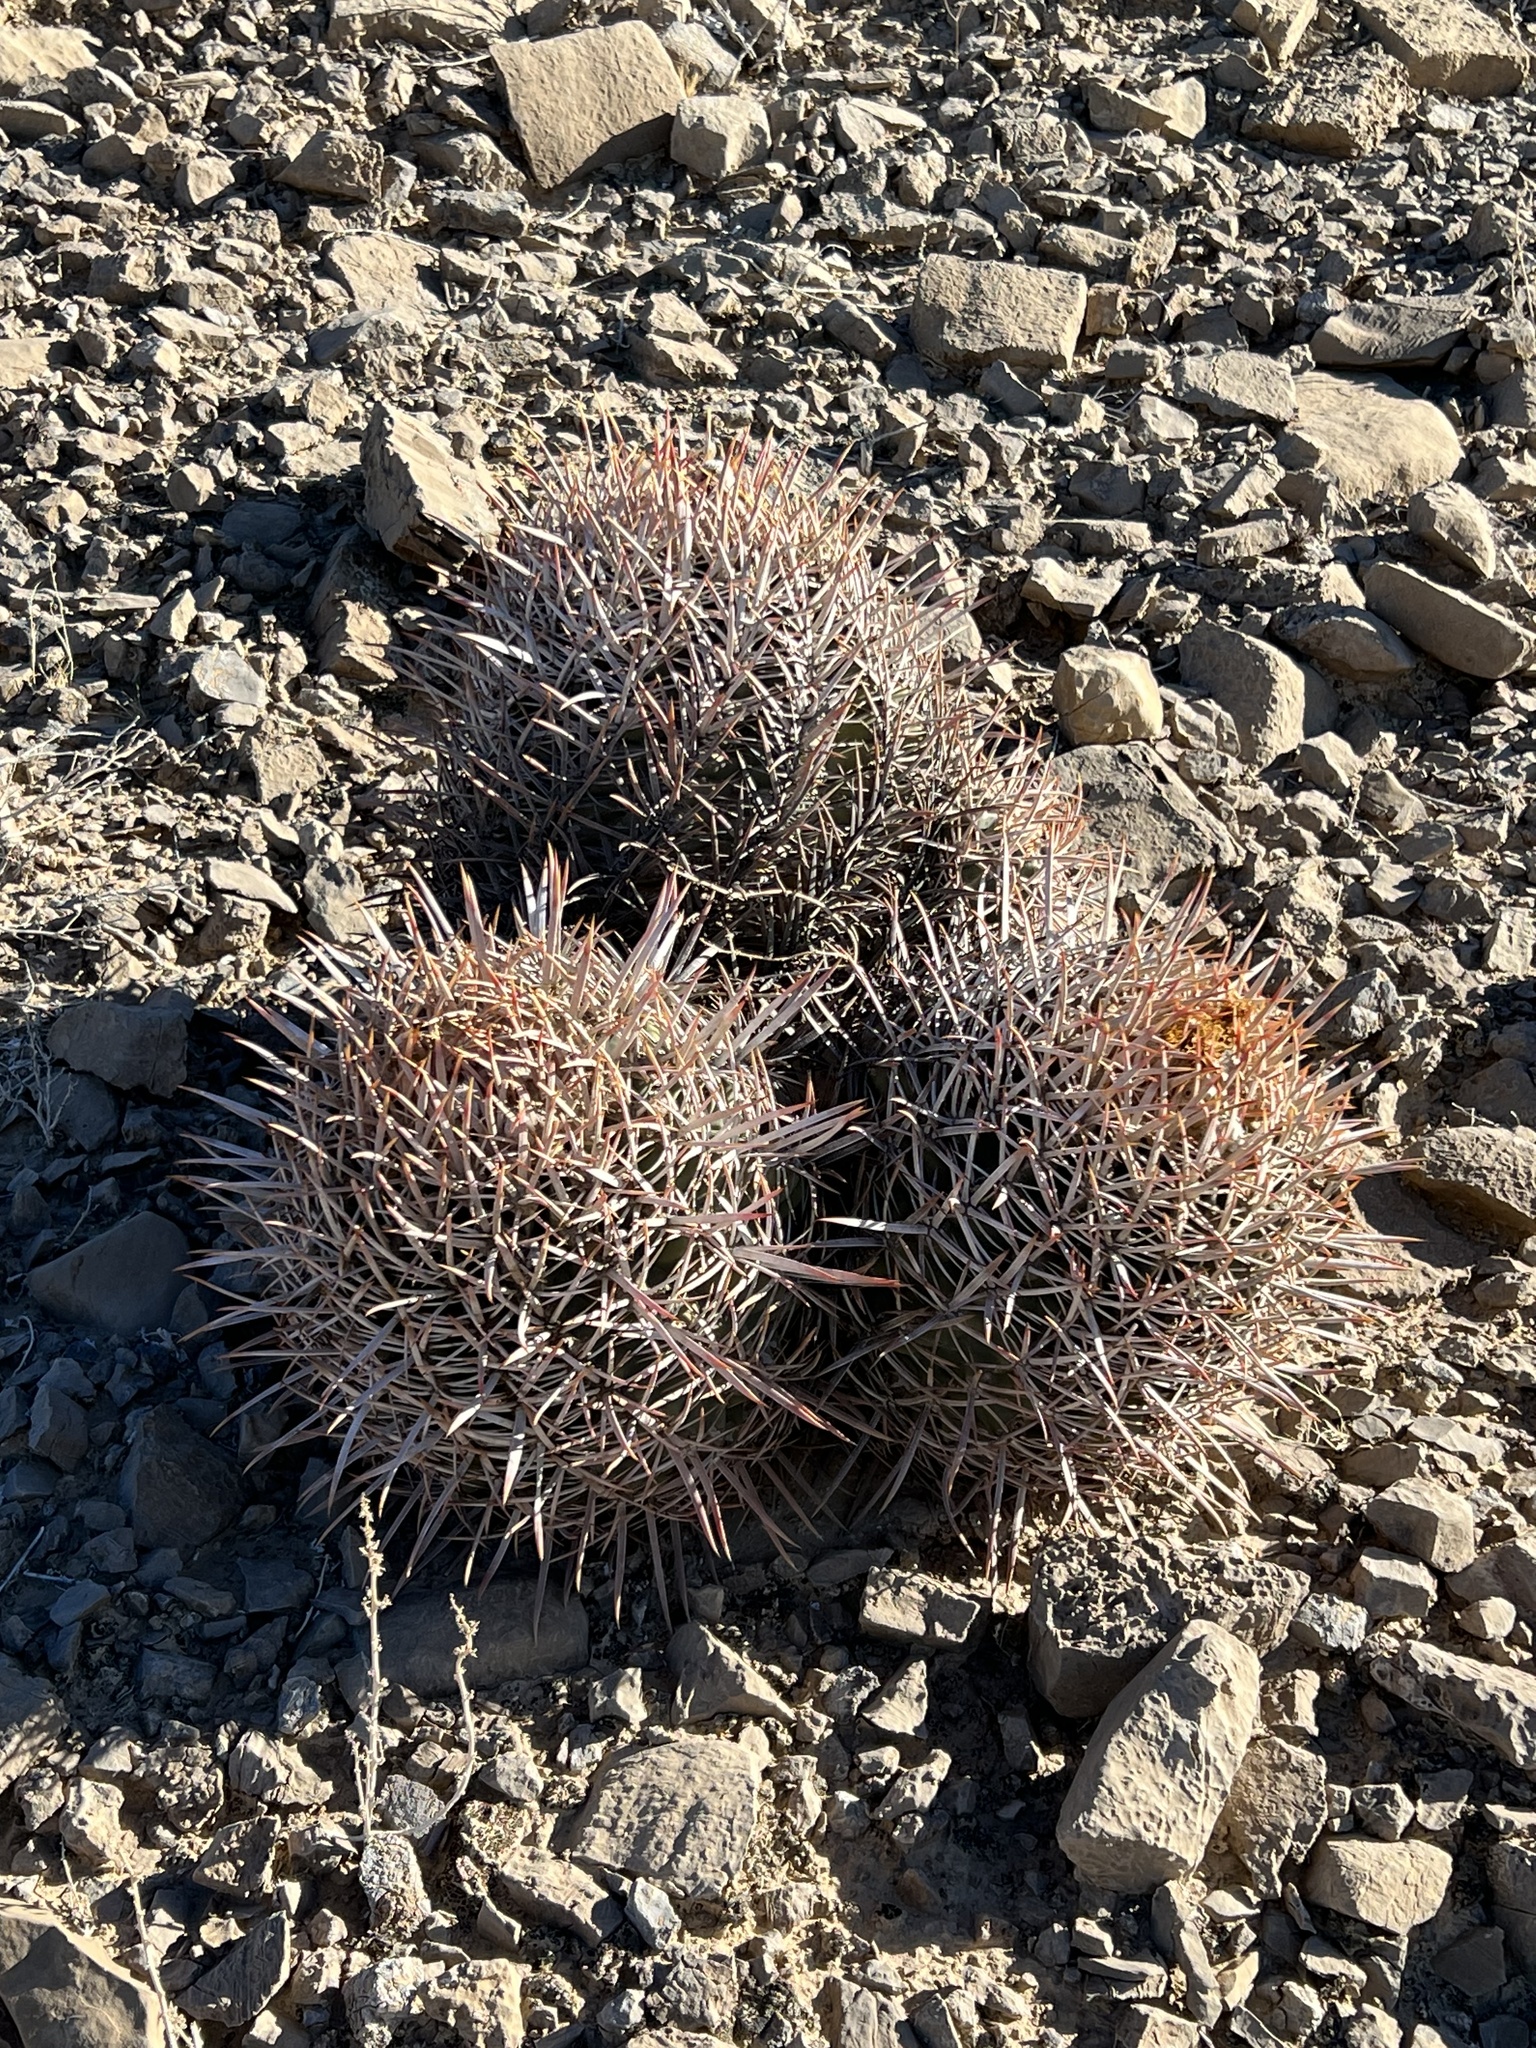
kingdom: Plantae
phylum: Tracheophyta
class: Magnoliopsida
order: Caryophyllales
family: Cactaceae
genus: Echinocactus
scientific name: Echinocactus polycephalus
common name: Cottontop cactus
